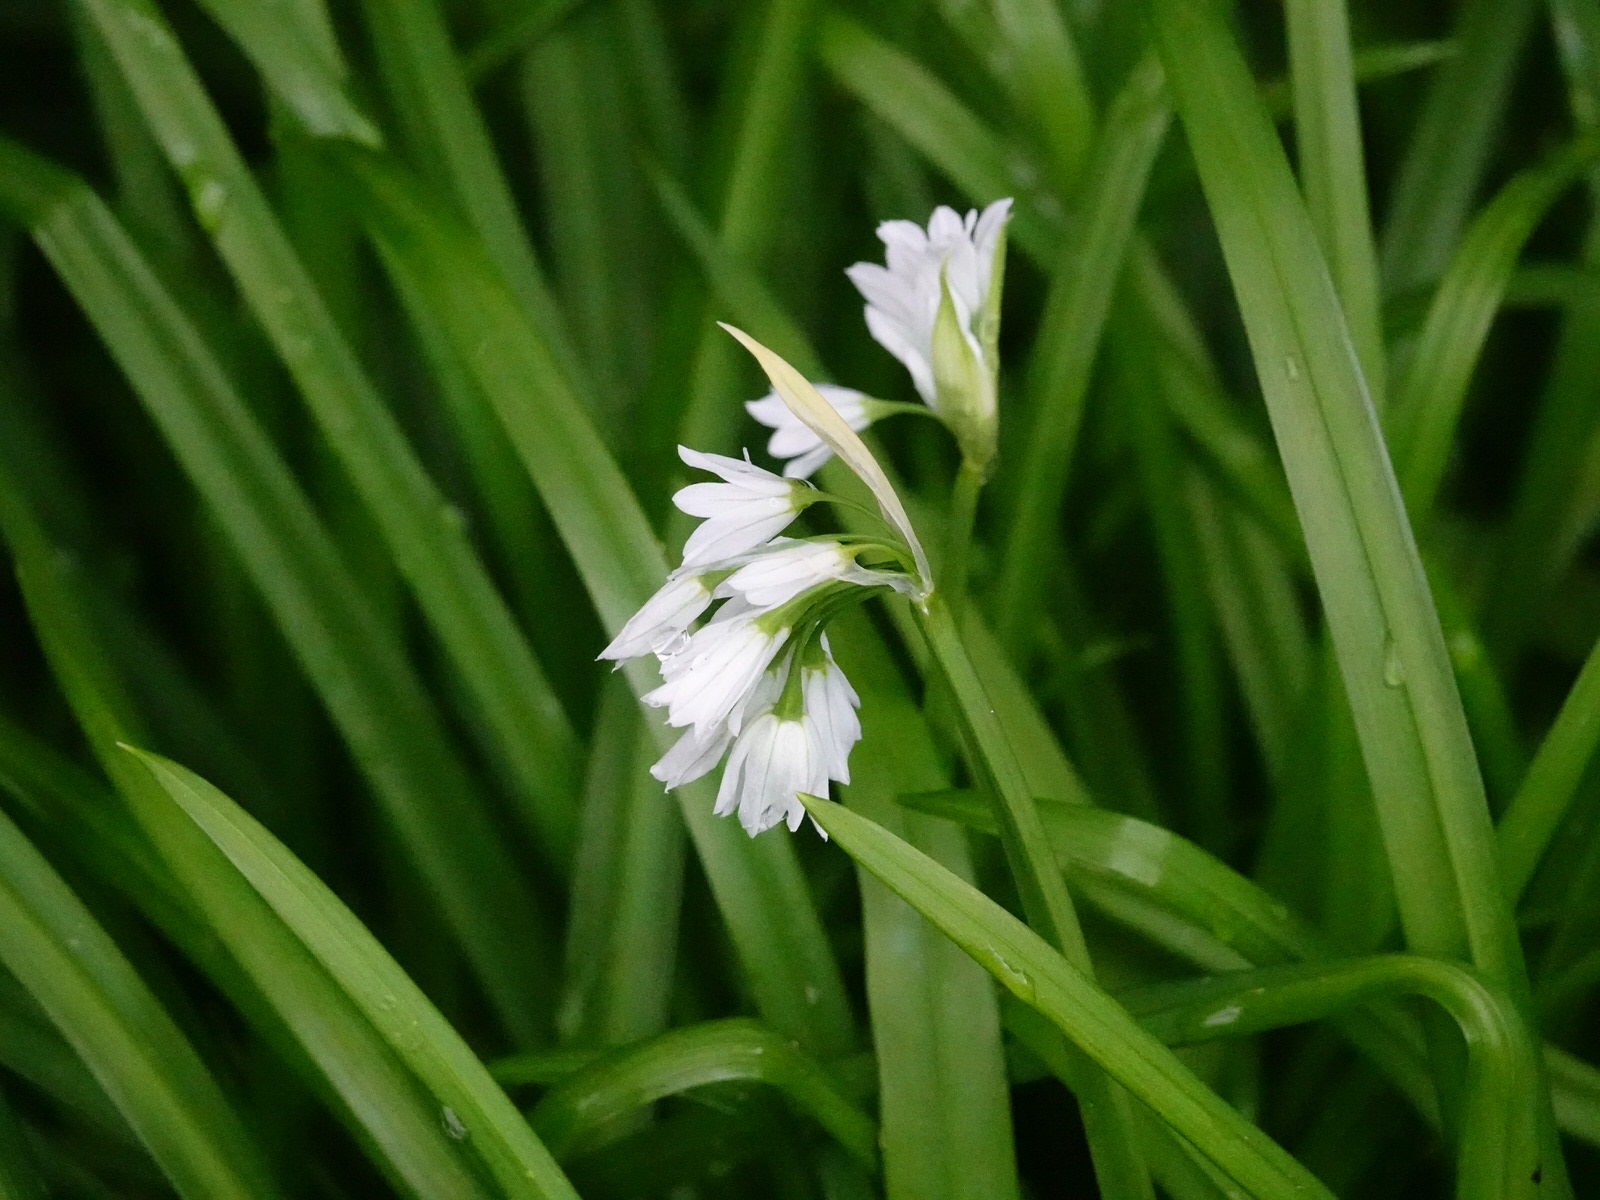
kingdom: Plantae
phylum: Tracheophyta
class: Liliopsida
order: Asparagales
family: Amaryllidaceae
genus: Allium
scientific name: Allium triquetrum
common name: Three-cornered garlic
